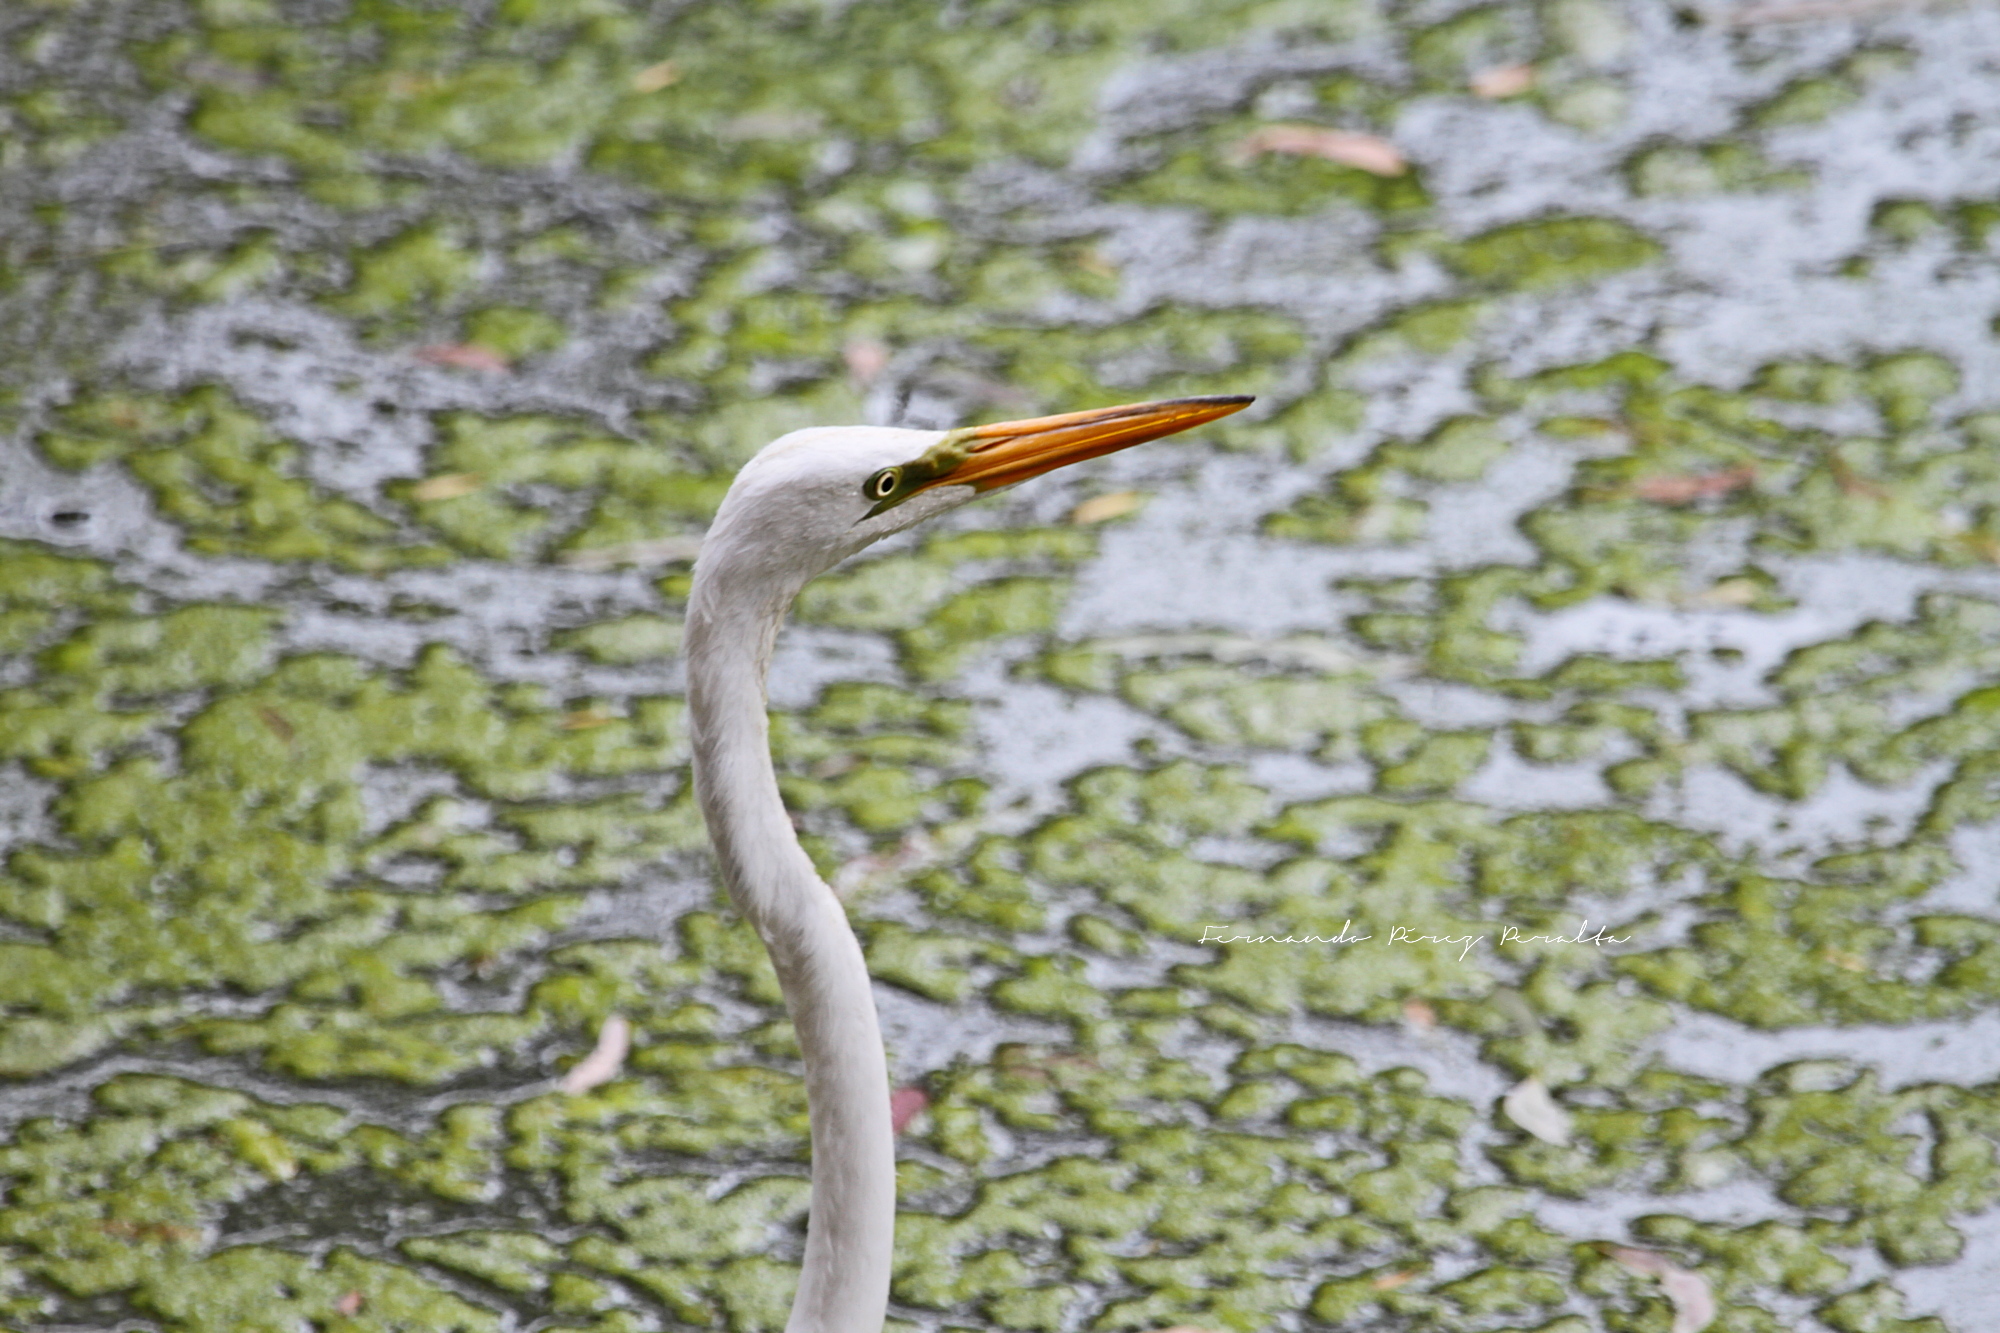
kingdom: Animalia
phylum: Chordata
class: Aves
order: Pelecaniformes
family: Ardeidae
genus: Ardea
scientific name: Ardea alba
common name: Great egret
